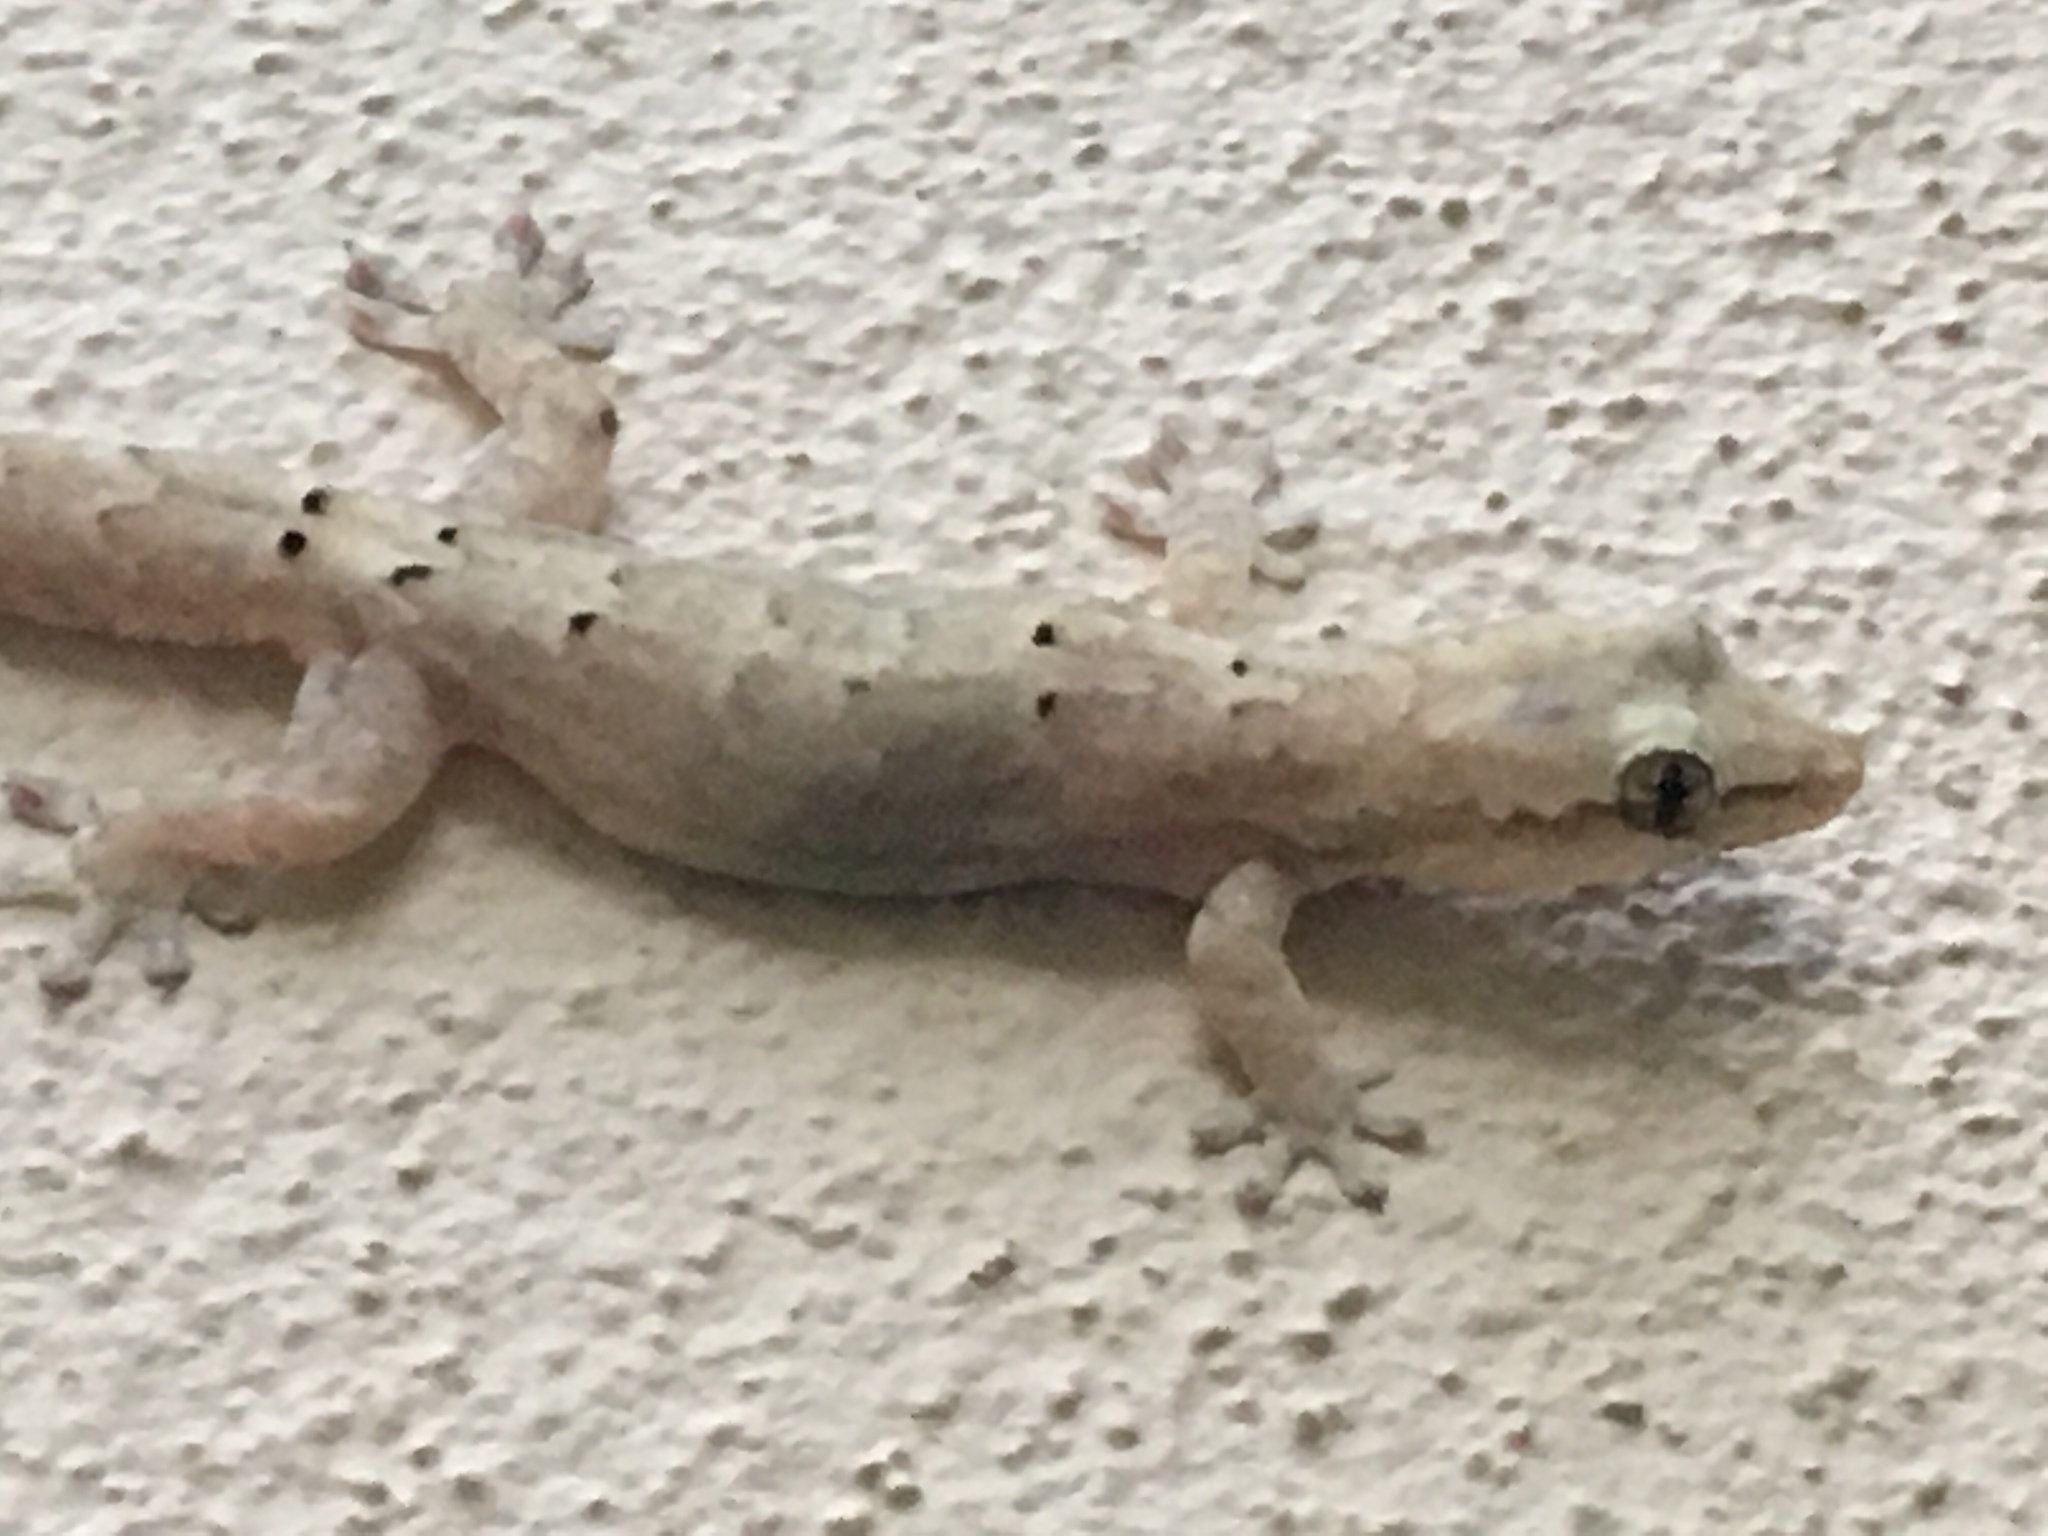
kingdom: Animalia
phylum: Chordata
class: Squamata
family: Gekkonidae
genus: Lepidodactylus
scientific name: Lepidodactylus lugubris
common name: Mourning gecko
